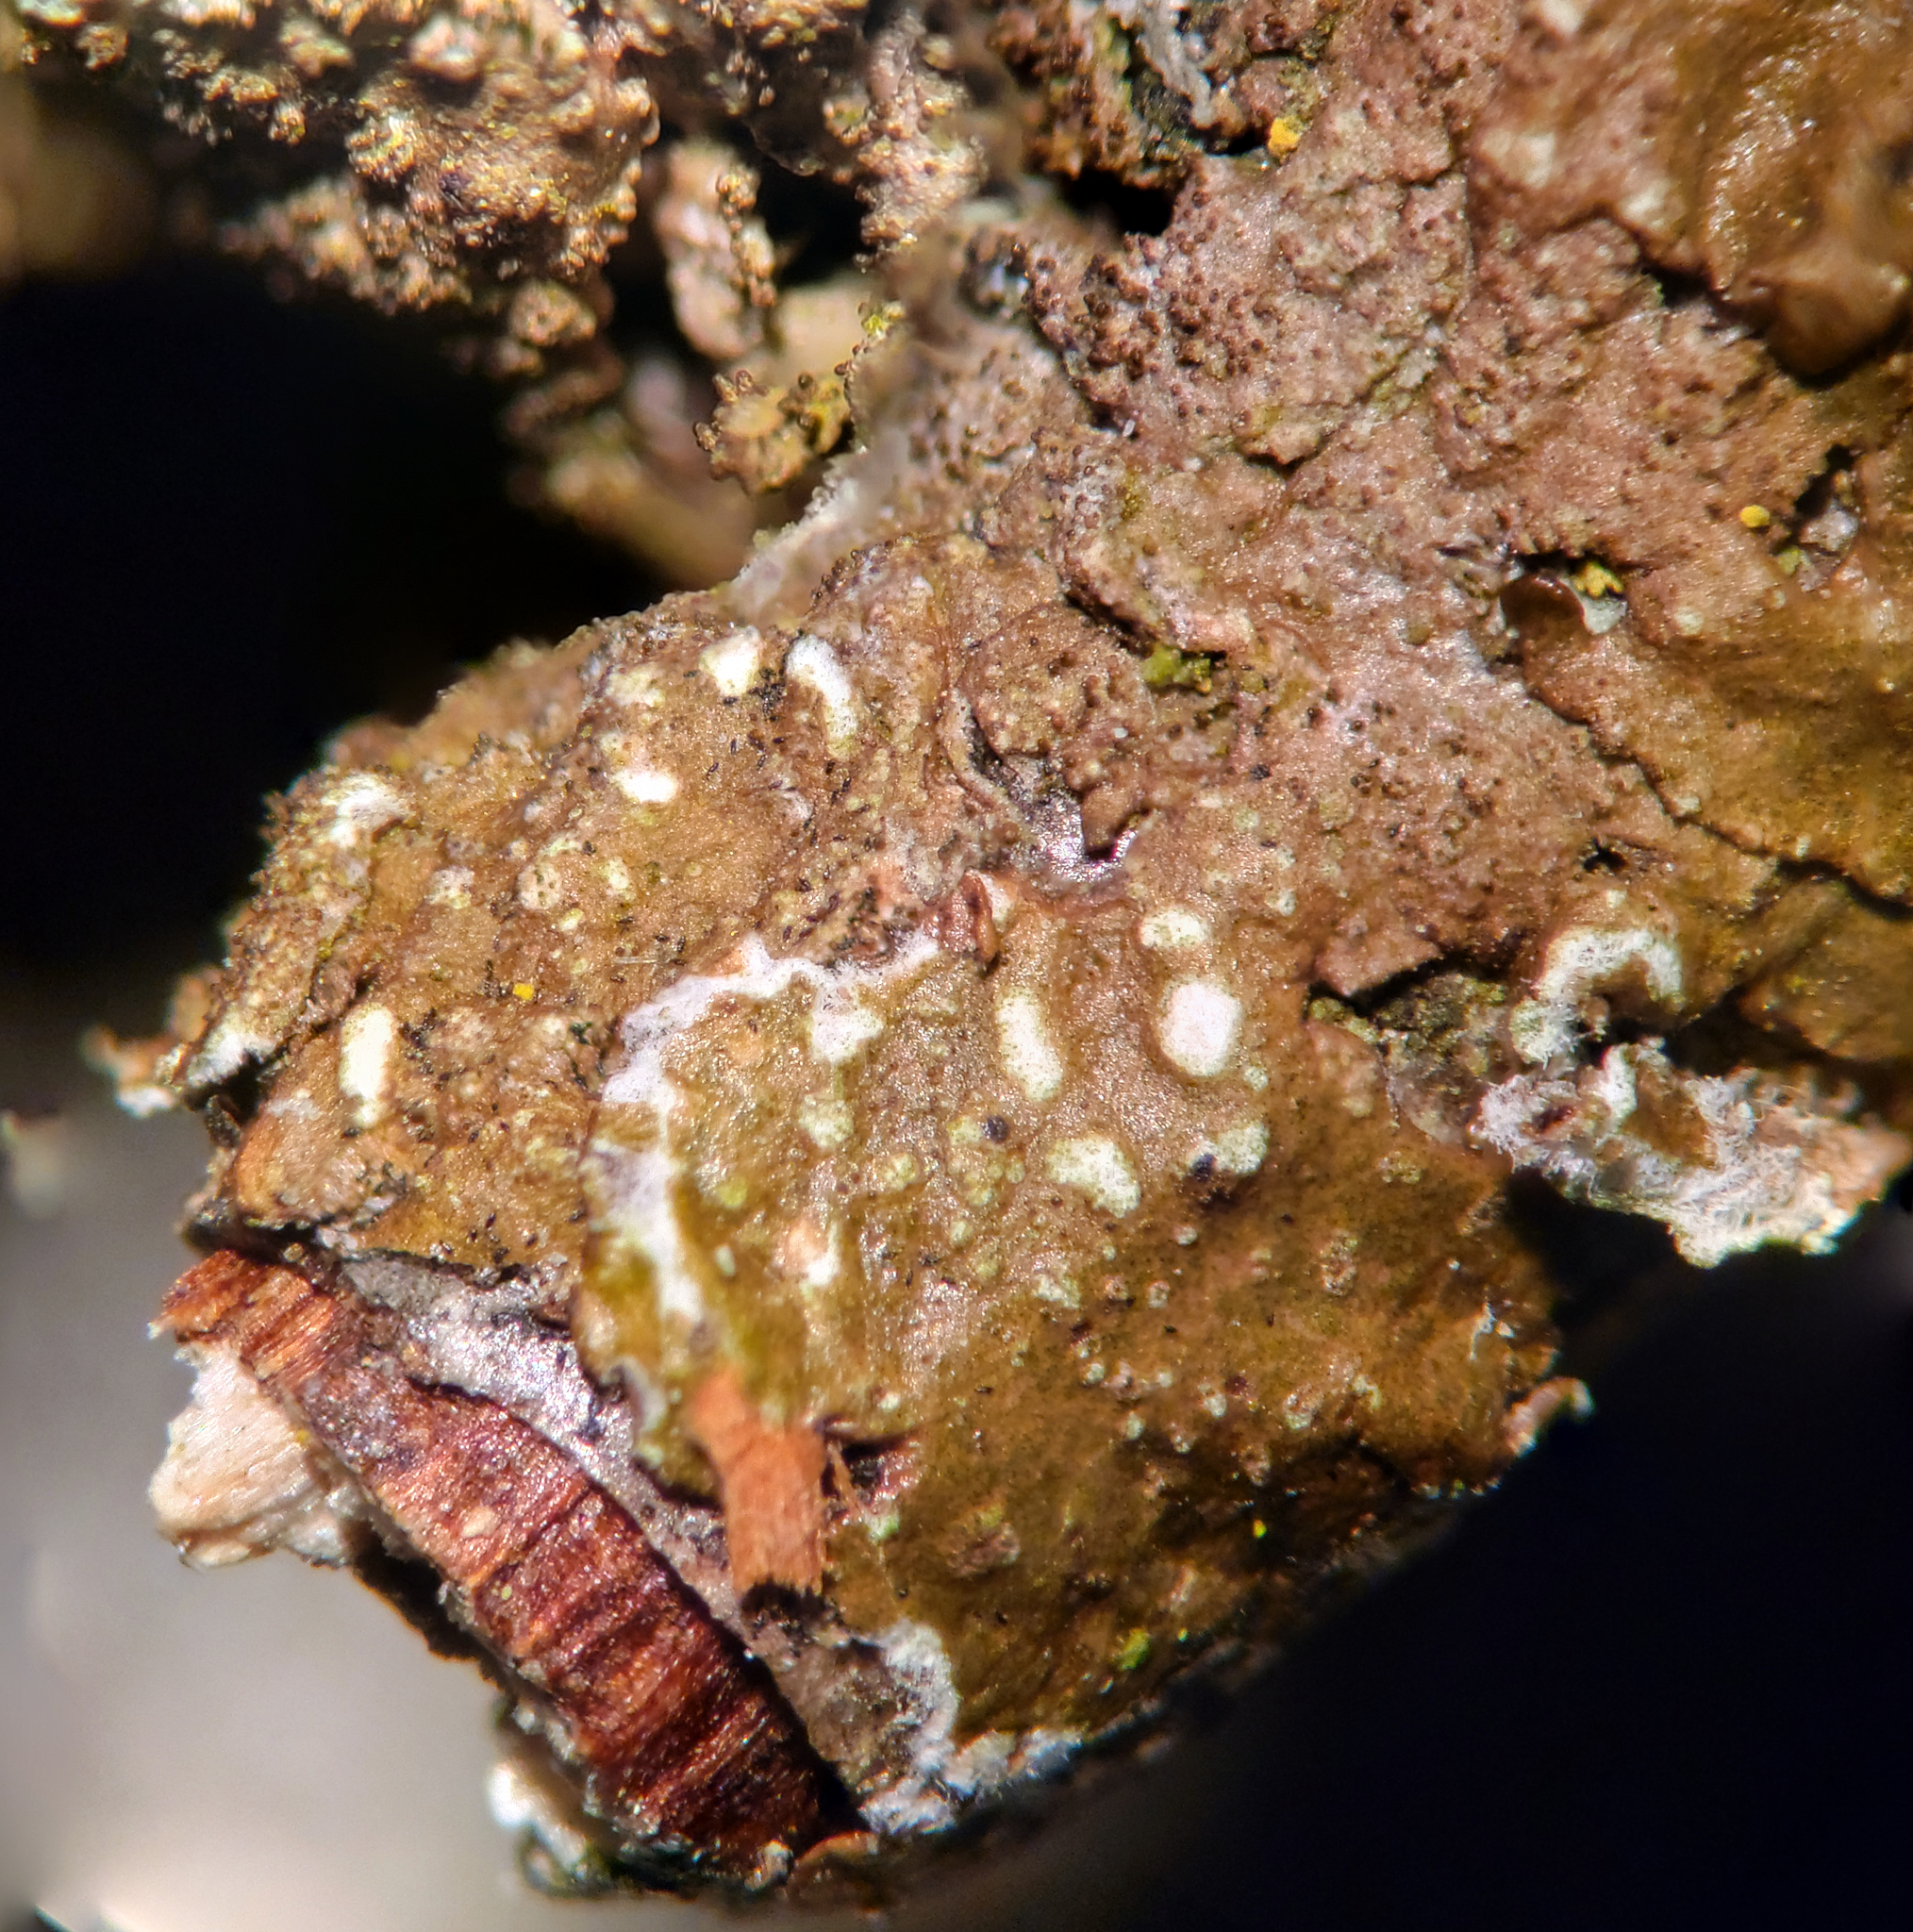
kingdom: Fungi
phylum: Ascomycota
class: Lecanoromycetes
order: Lecanorales
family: Parmeliaceae
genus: Melanelixia
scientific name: Melanelixia subaurifera
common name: Abraded camouflage lichen
